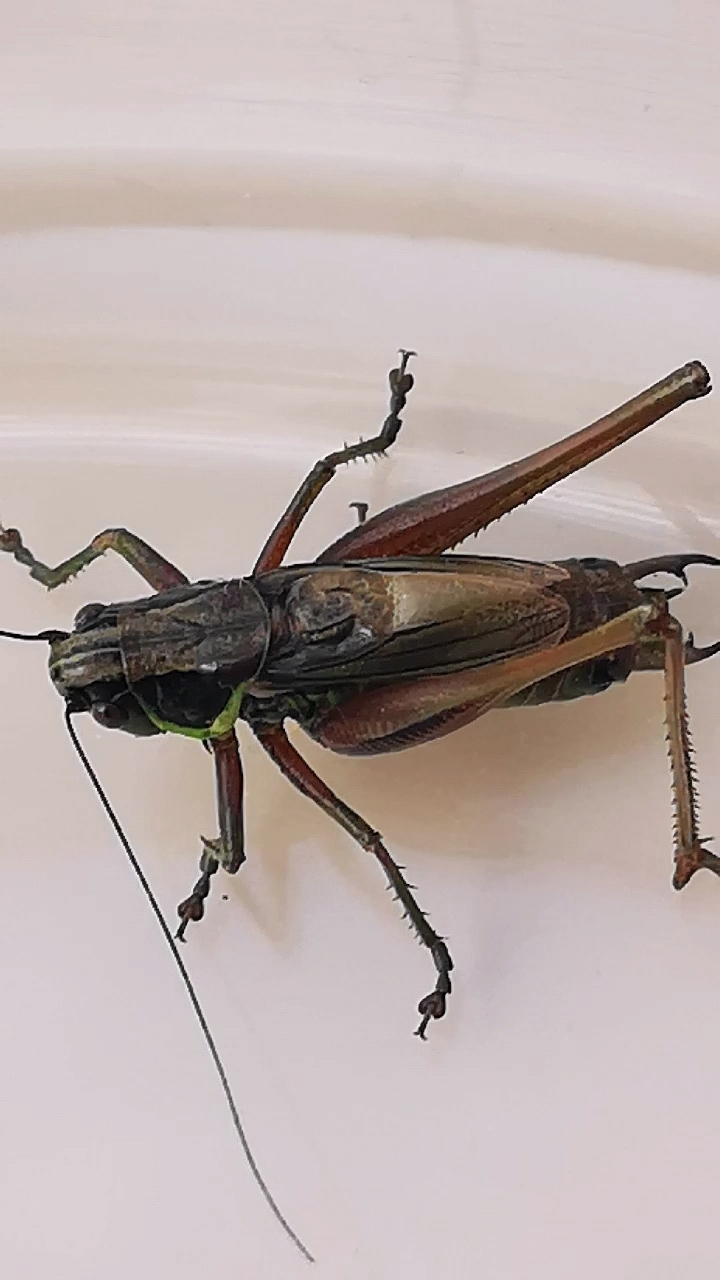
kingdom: Animalia
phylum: Arthropoda
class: Insecta
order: Orthoptera
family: Tettigoniidae
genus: Roeseliana
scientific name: Roeseliana roeselii
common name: Roesel's bush cricket
